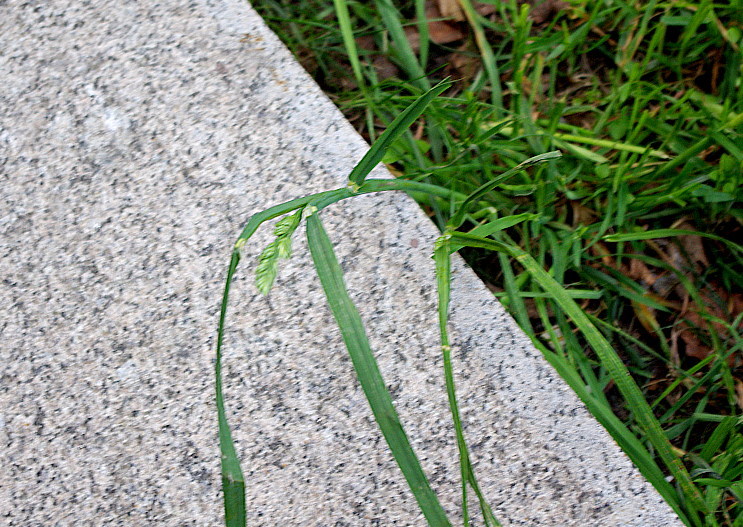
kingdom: Plantae
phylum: Tracheophyta
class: Liliopsida
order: Poales
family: Poaceae
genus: Dactylis
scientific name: Dactylis glomerata
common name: Orchardgrass
